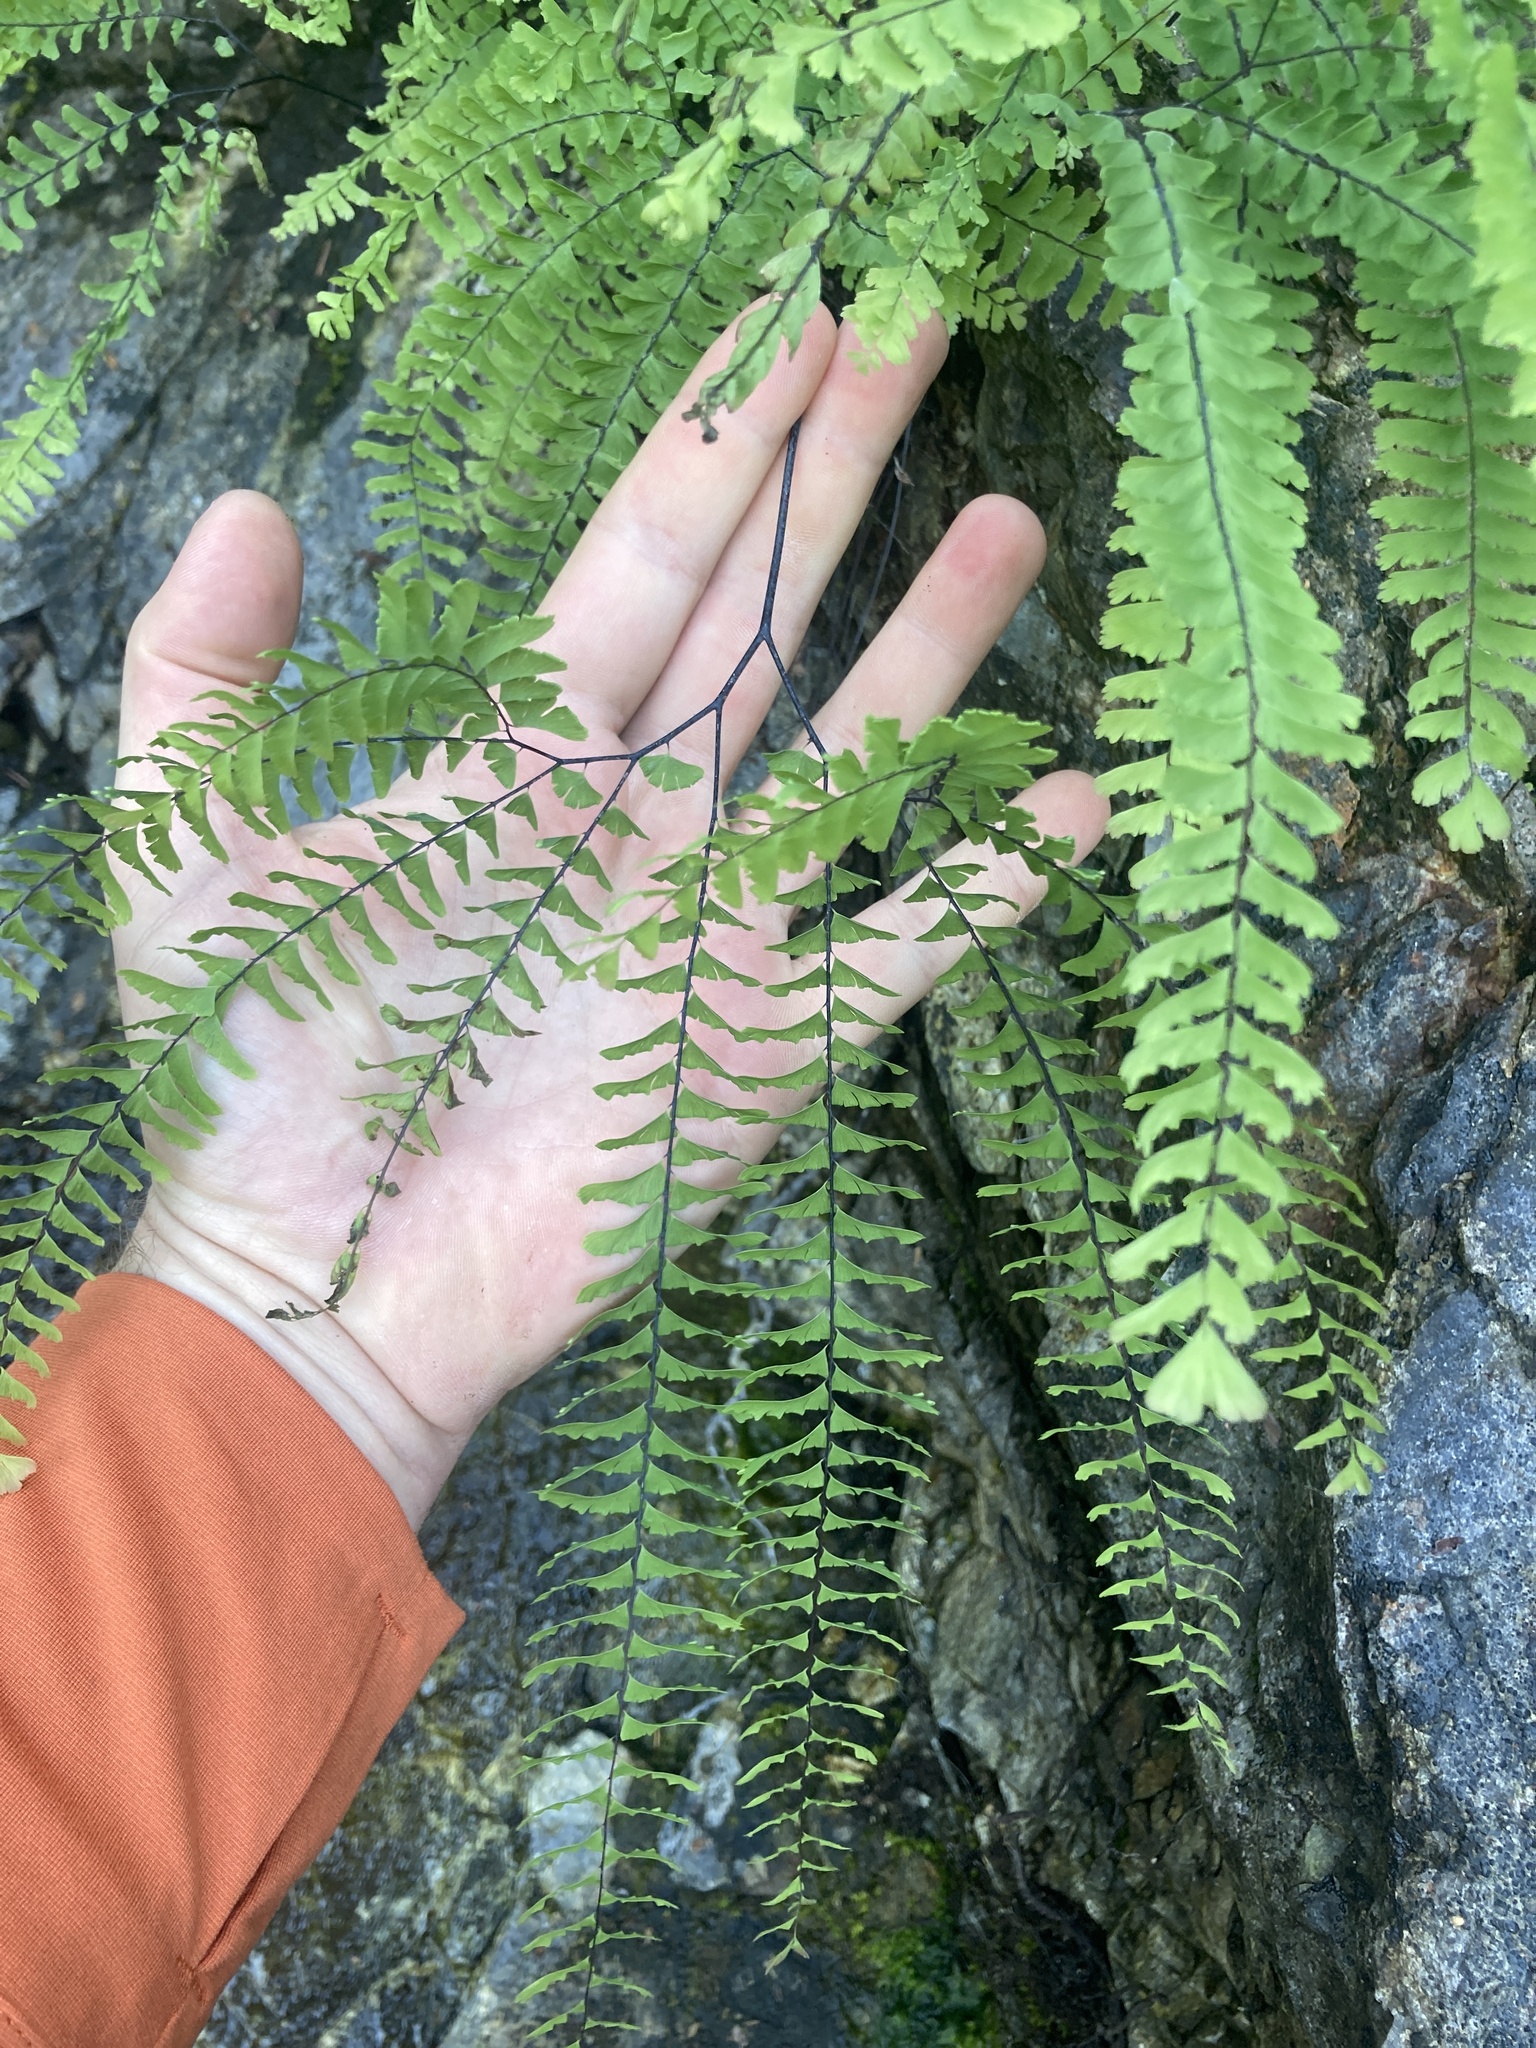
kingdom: Plantae
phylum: Tracheophyta
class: Polypodiopsida
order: Polypodiales
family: Pteridaceae
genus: Adiantum
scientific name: Adiantum aleuticum
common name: Aleutian maidenhair fern
